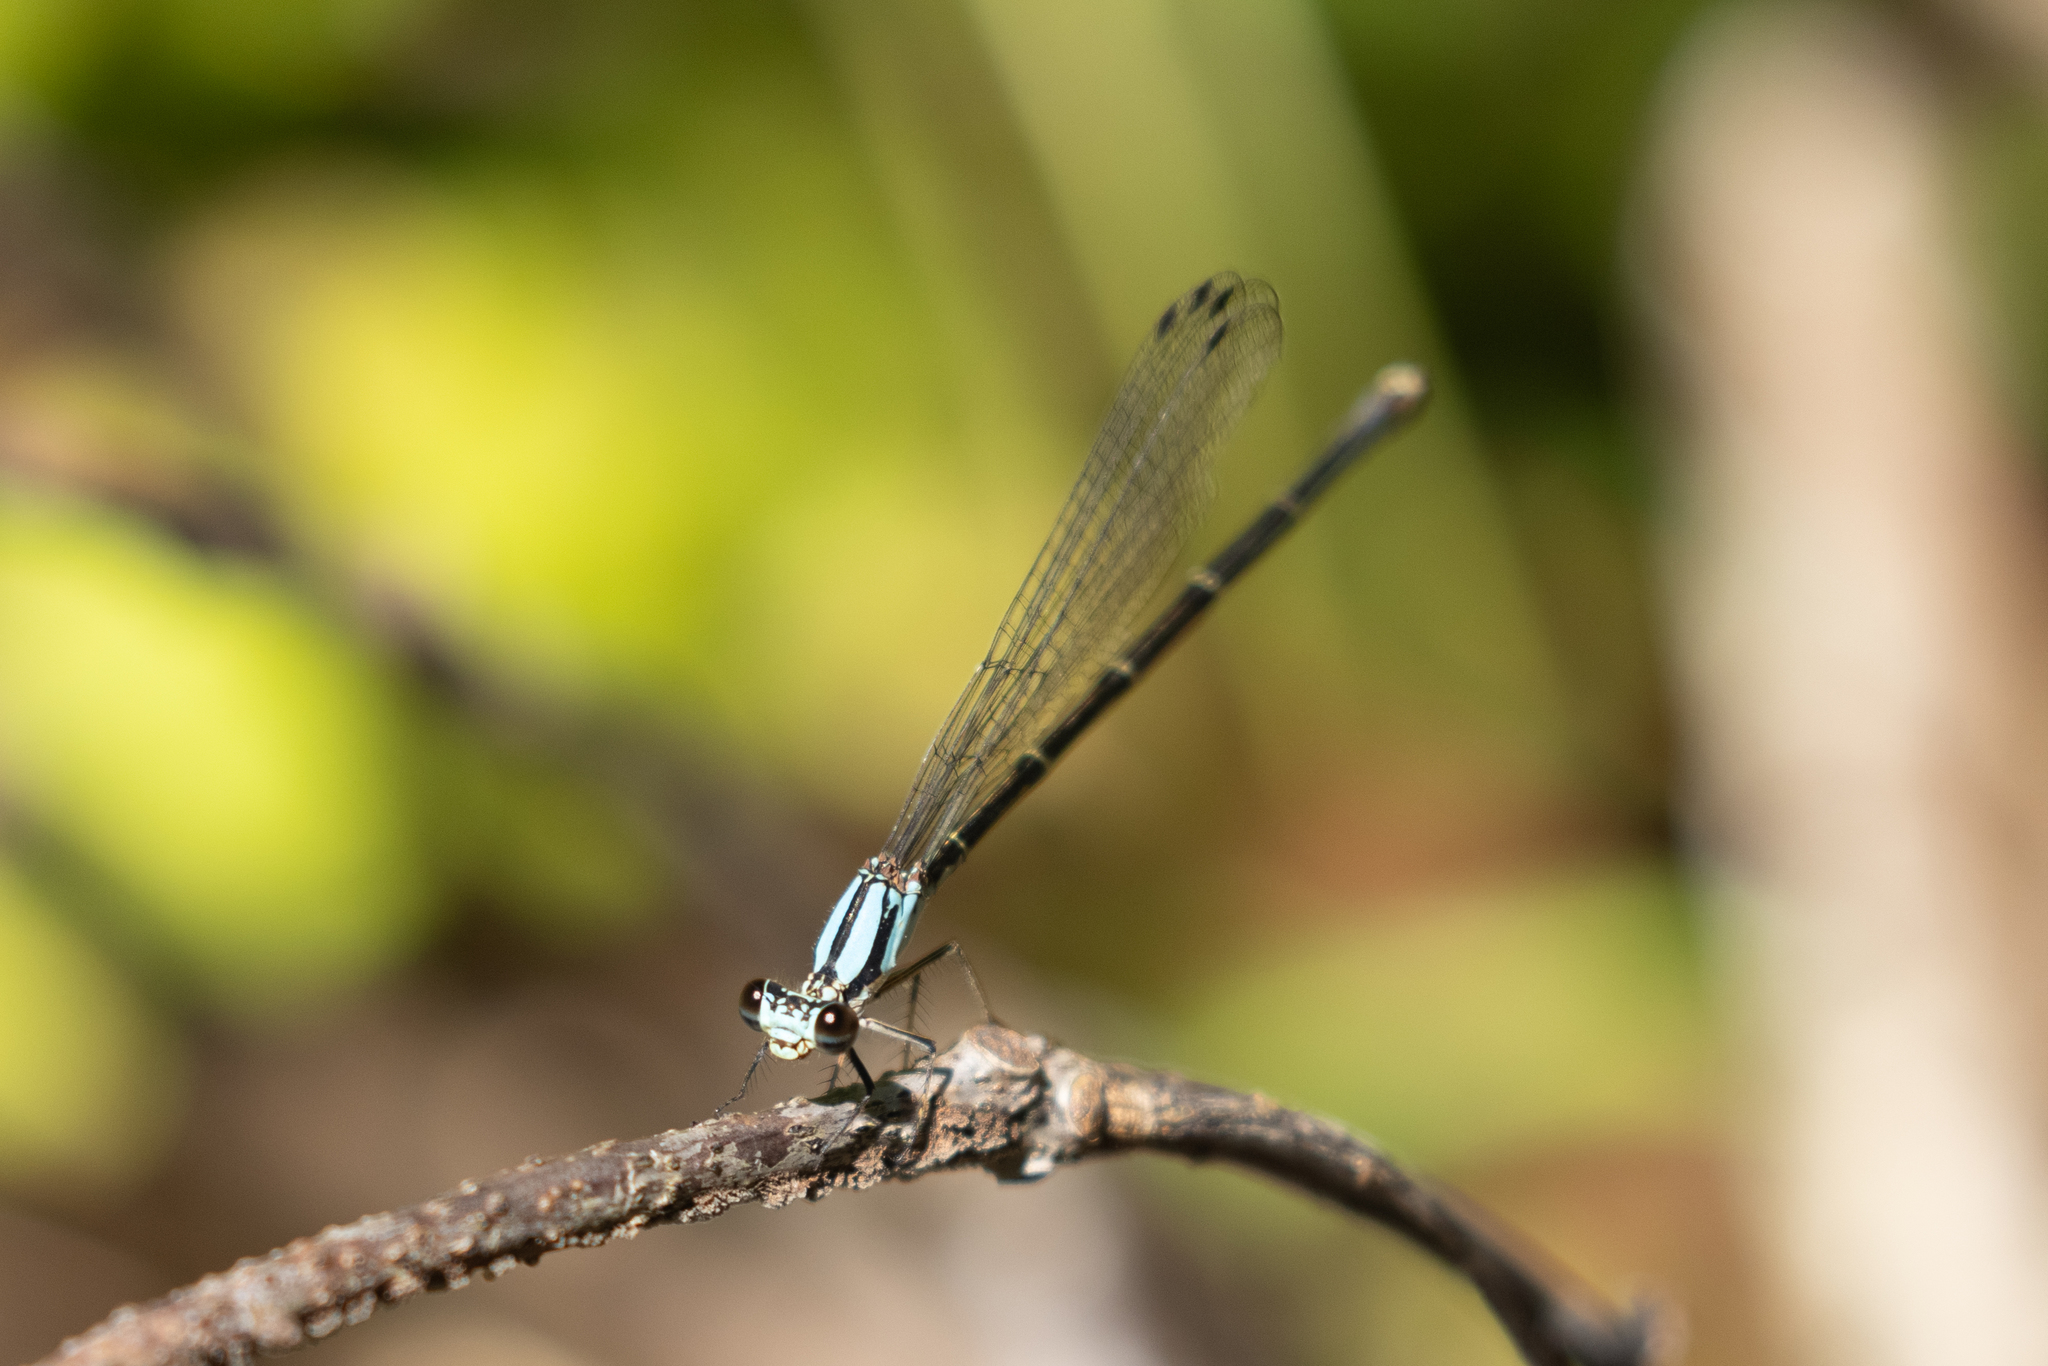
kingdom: Animalia
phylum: Arthropoda
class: Insecta
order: Odonata
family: Coenagrionidae
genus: Argia
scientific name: Argia tibialis
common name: Blue-tipped dancer
